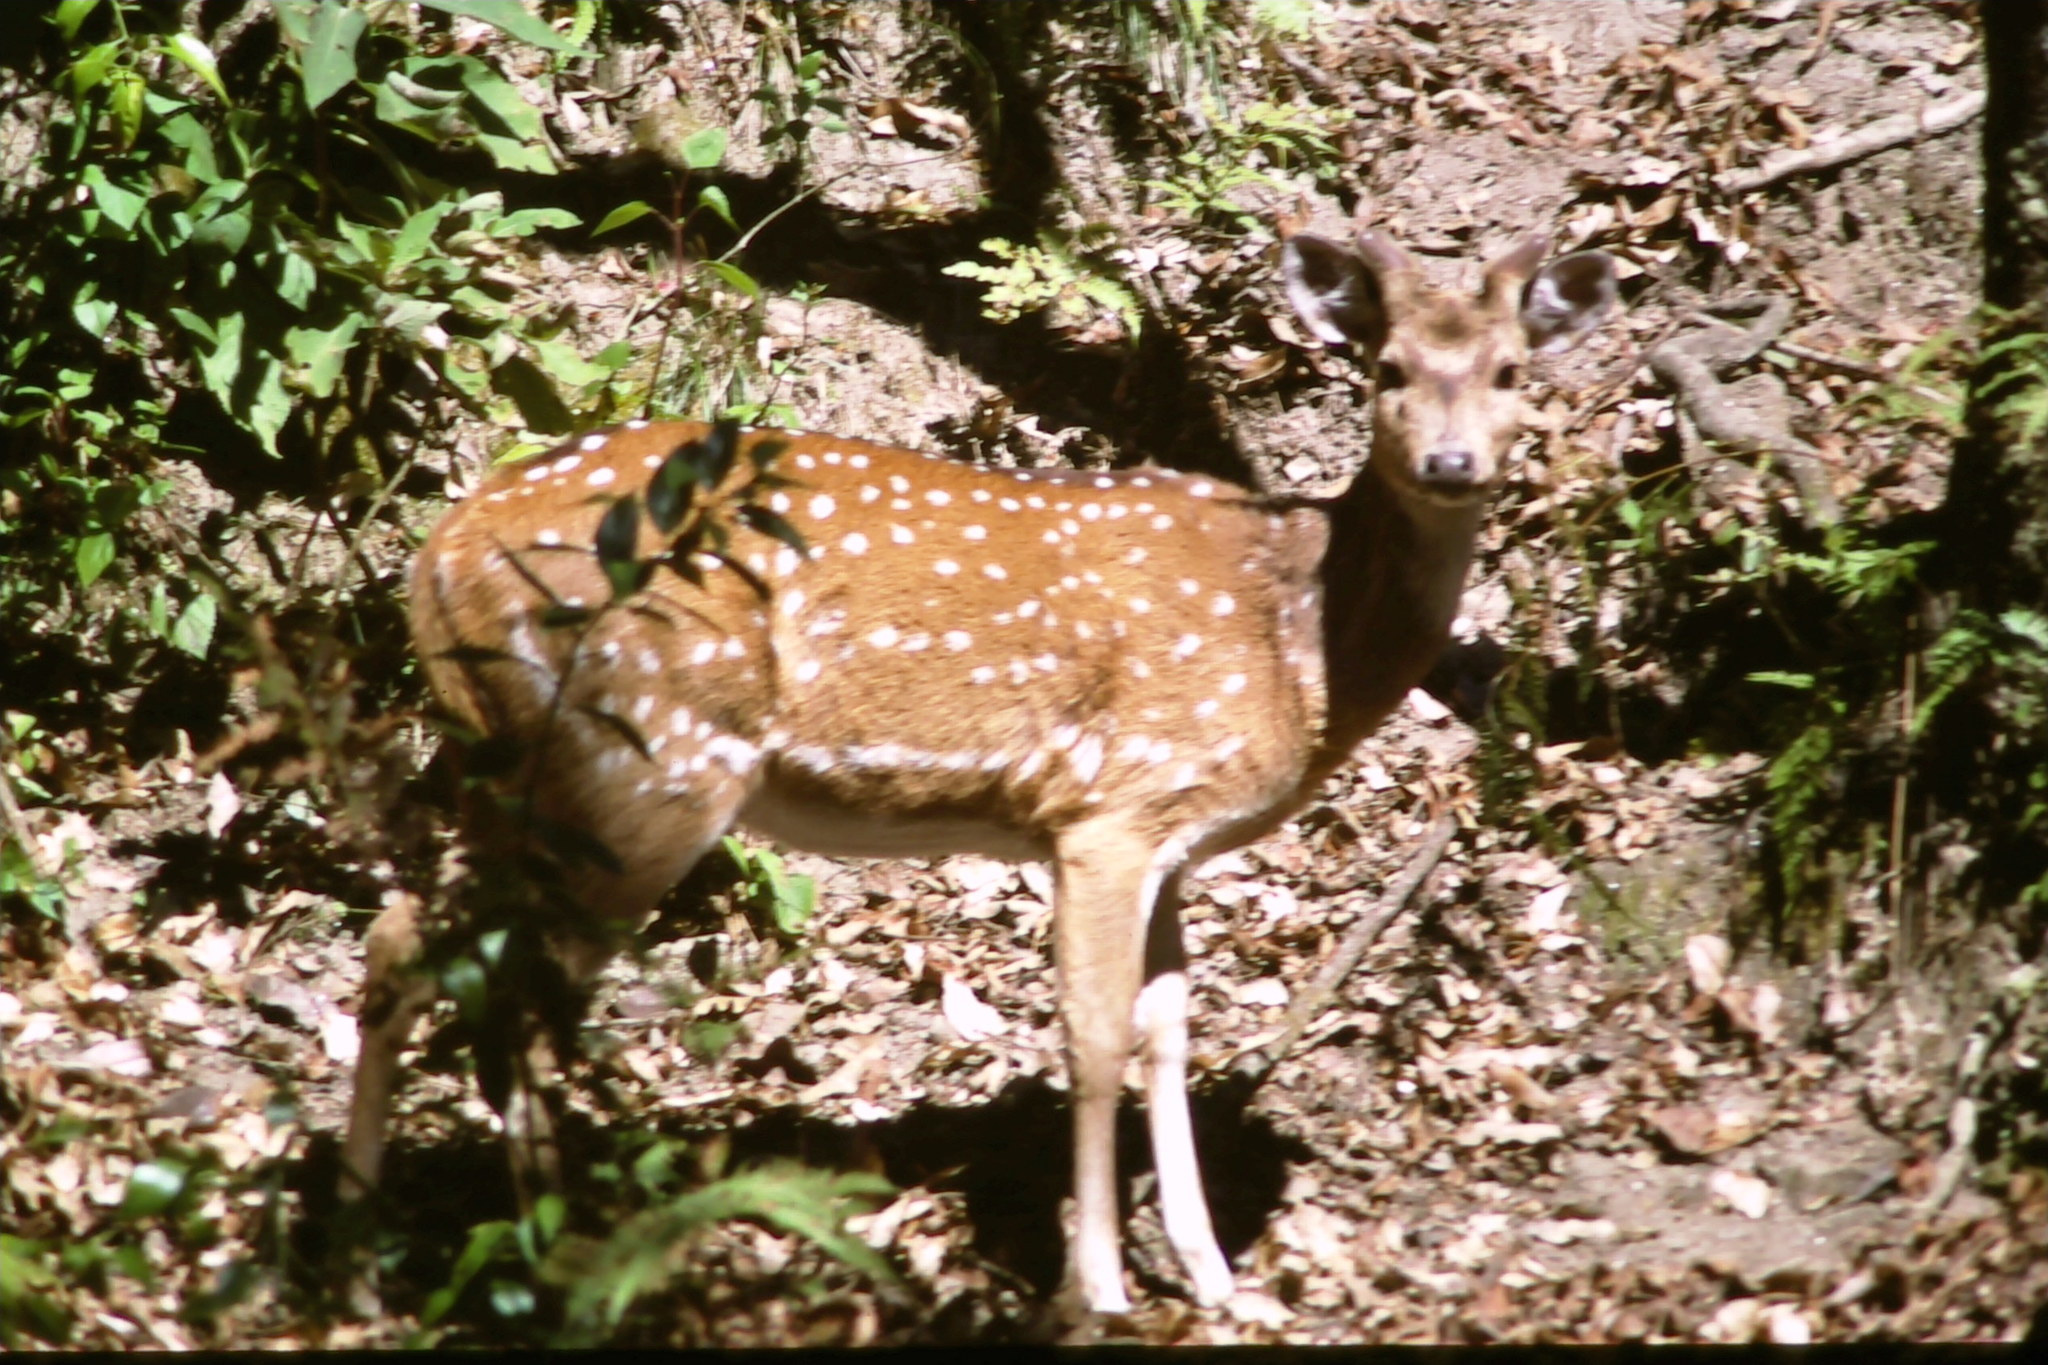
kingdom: Animalia
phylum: Chordata
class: Mammalia
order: Artiodactyla
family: Cervidae
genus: Axis
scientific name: Axis axis
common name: Chital
